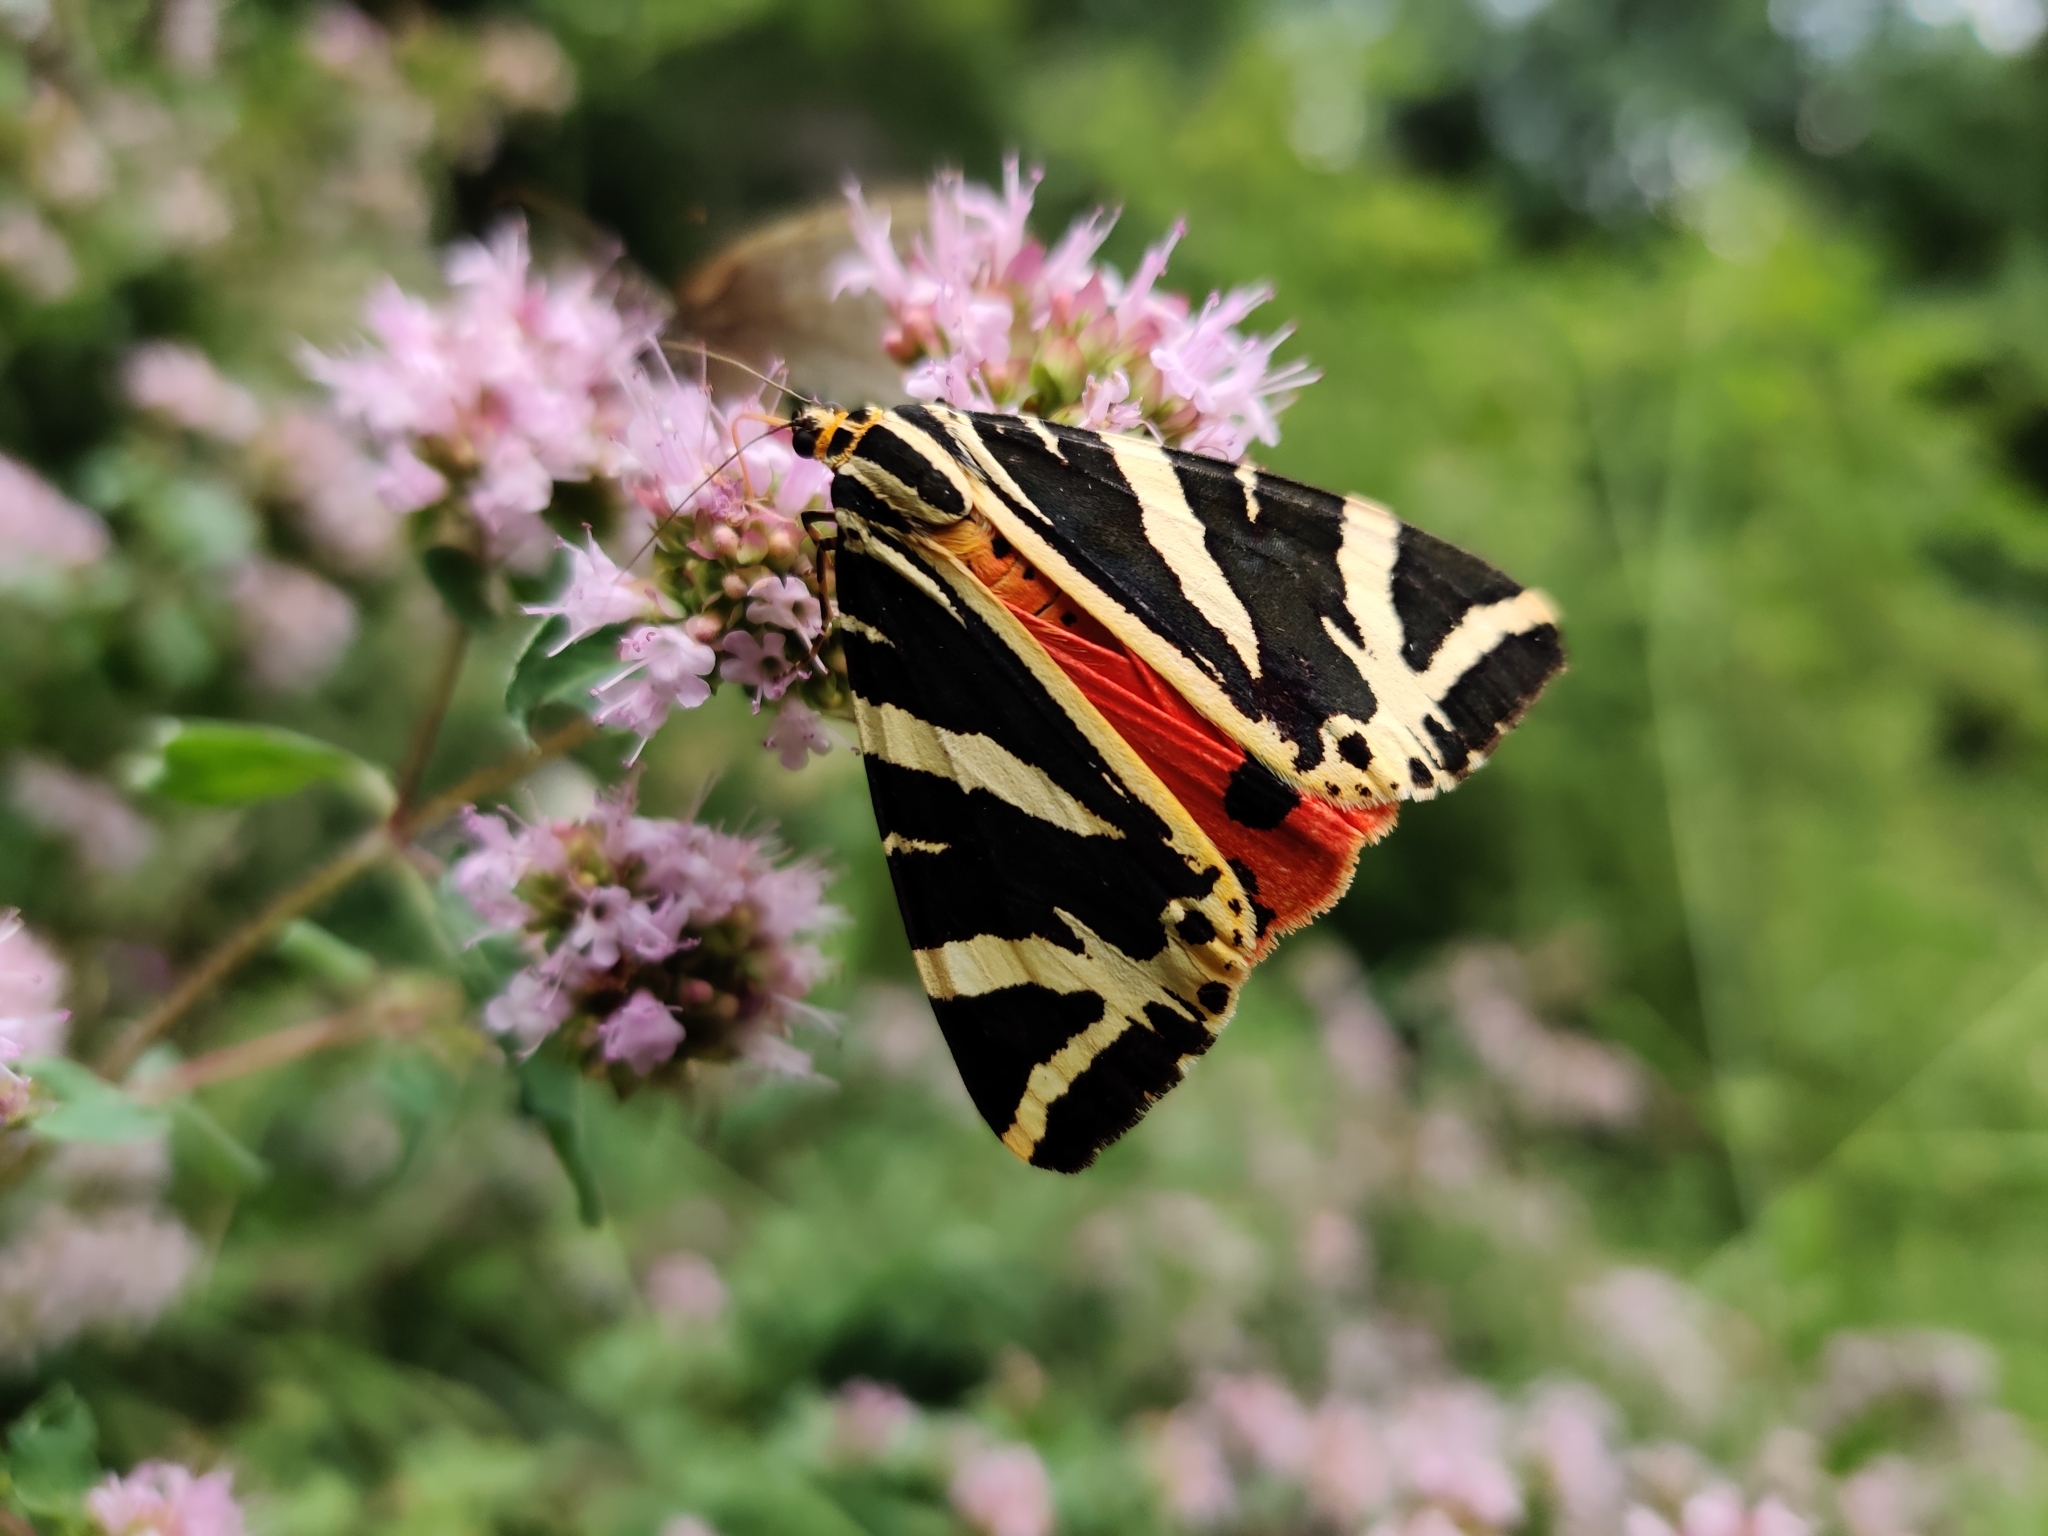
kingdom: Animalia
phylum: Arthropoda
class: Insecta
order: Lepidoptera
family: Erebidae
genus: Euplagia
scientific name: Euplagia quadripunctaria
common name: Jersey tiger
